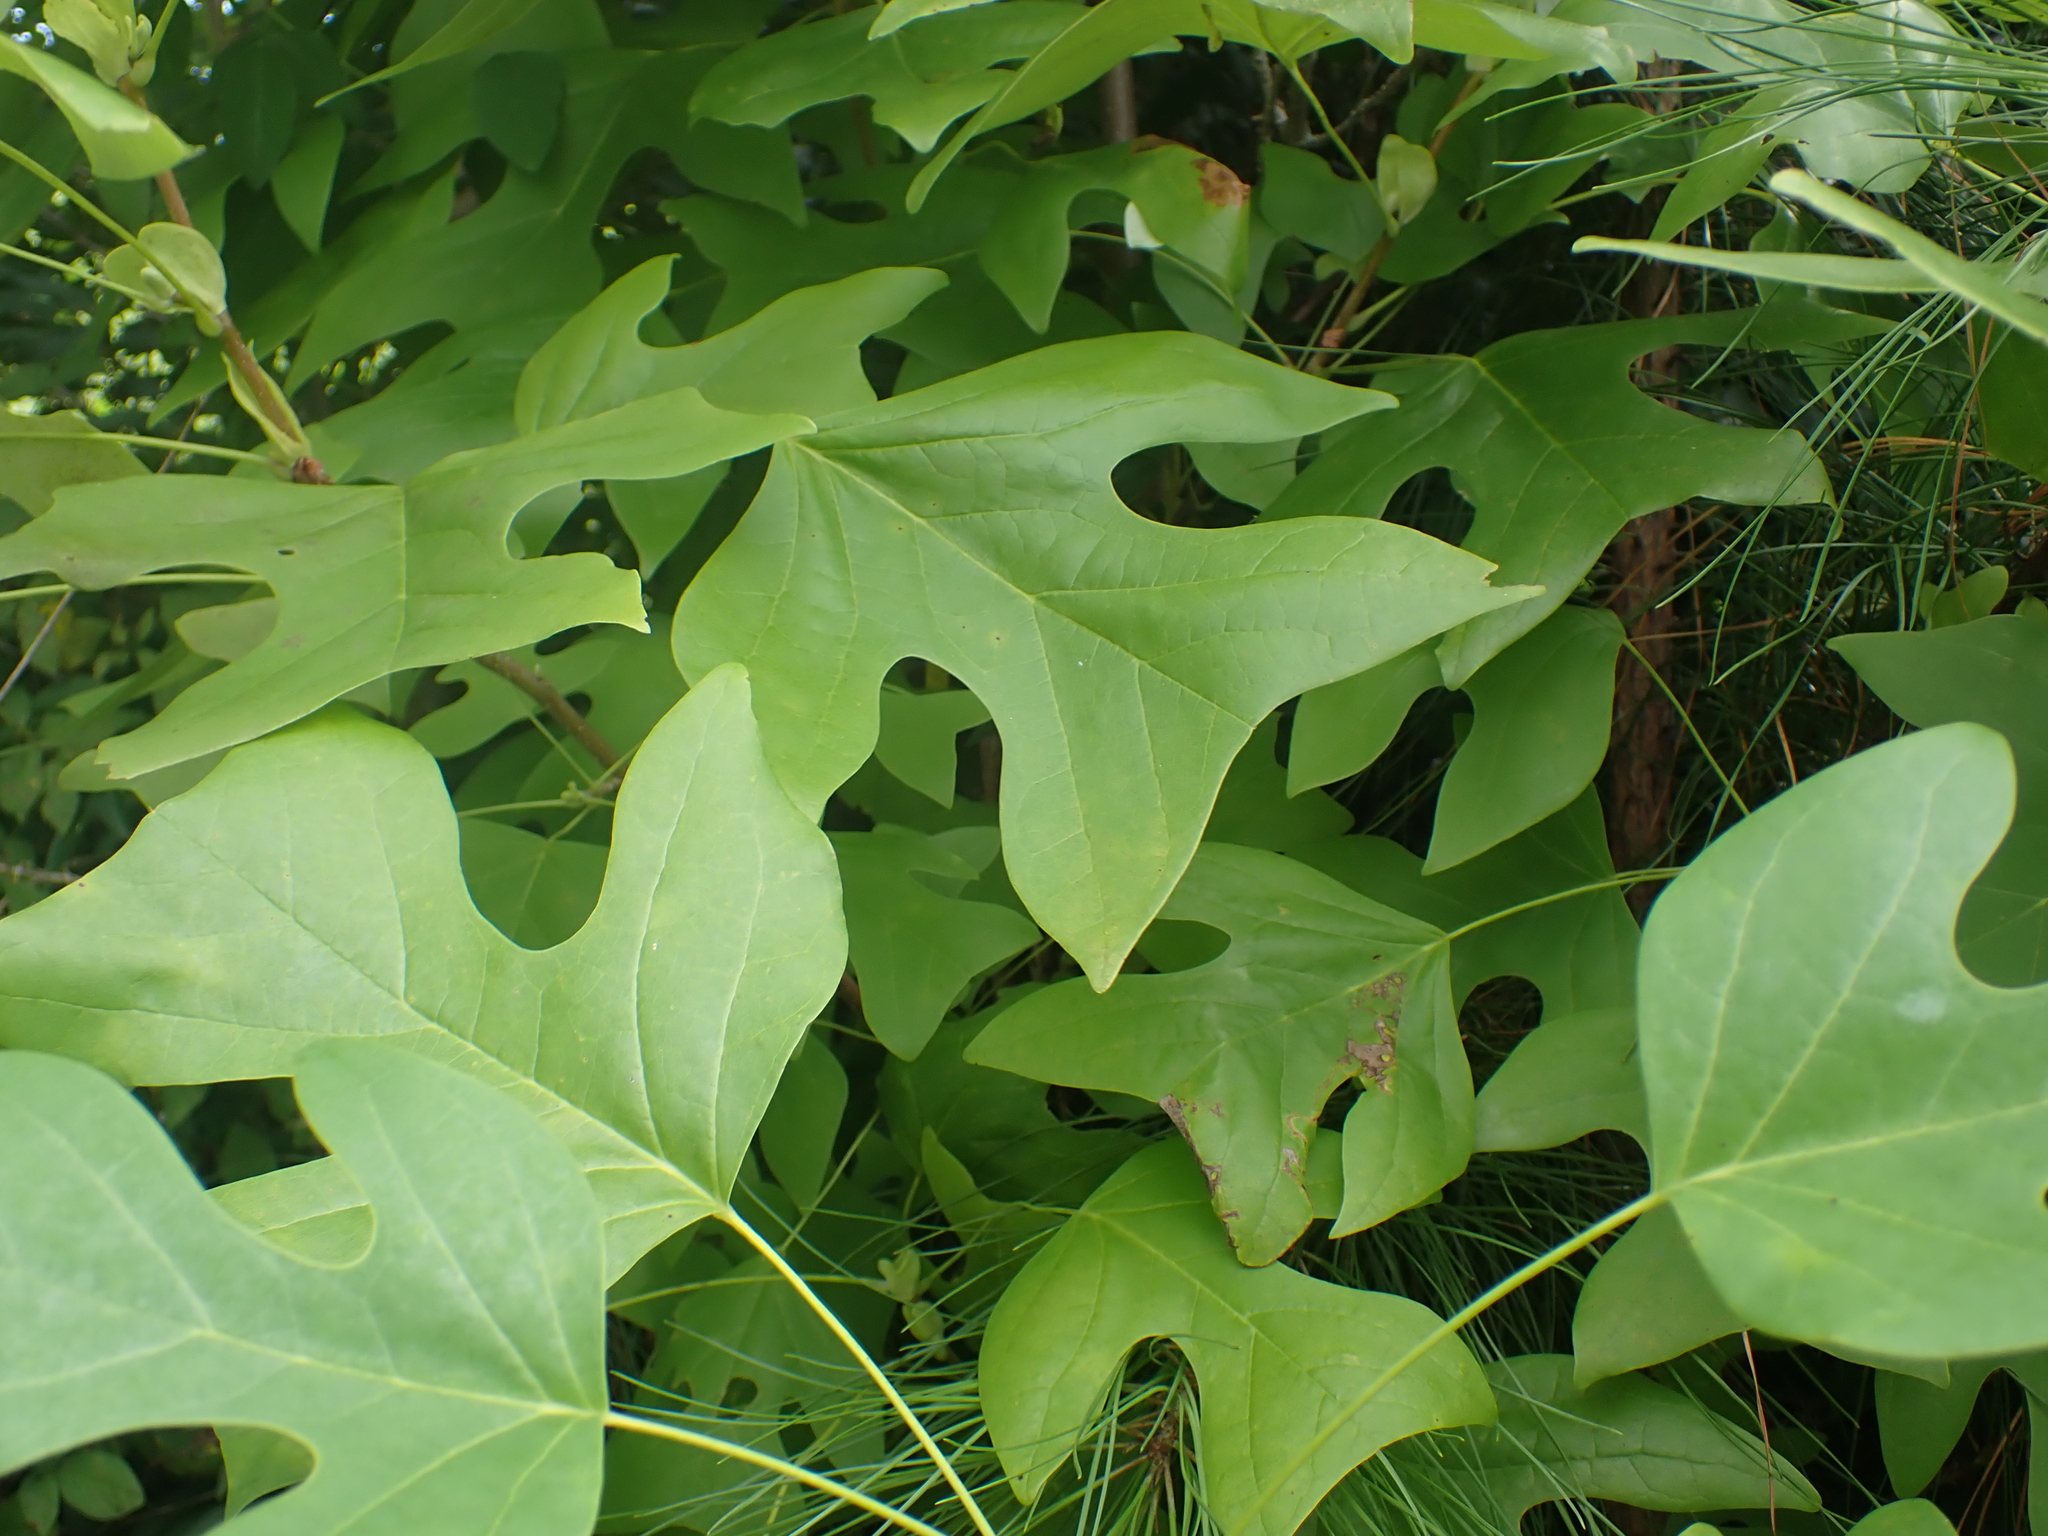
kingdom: Plantae
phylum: Tracheophyta
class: Magnoliopsida
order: Magnoliales
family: Magnoliaceae
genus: Liriodendron
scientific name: Liriodendron tulipifera
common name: Tulip tree
